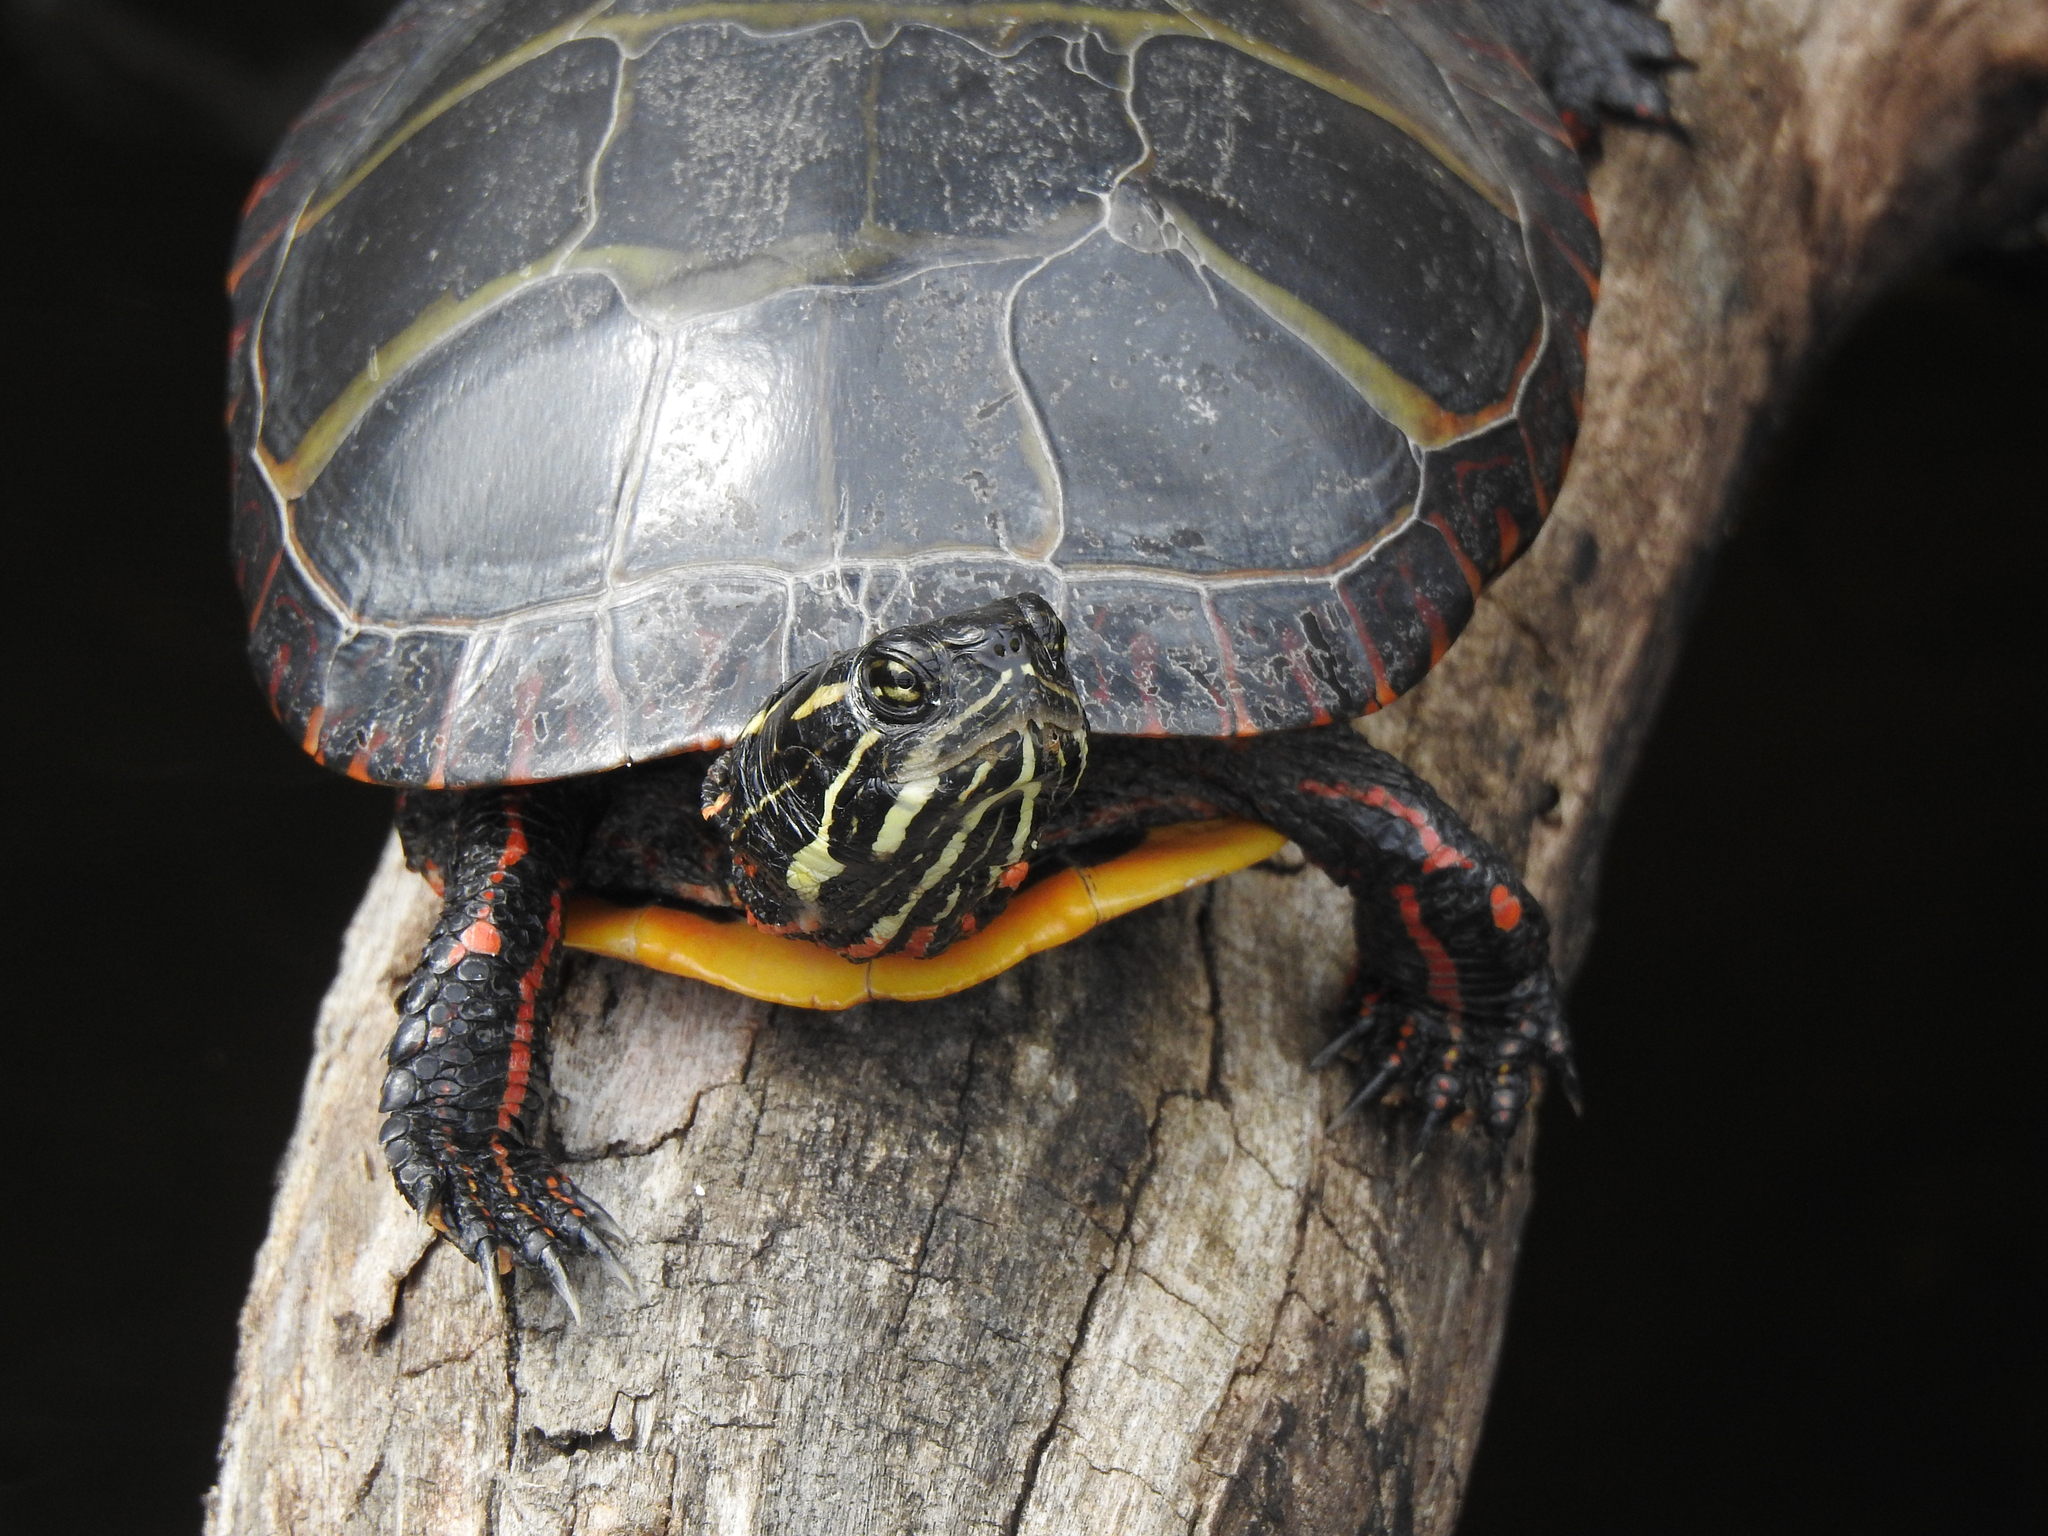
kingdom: Animalia
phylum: Chordata
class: Testudines
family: Emydidae
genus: Chrysemys
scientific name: Chrysemys picta
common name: Painted turtle
